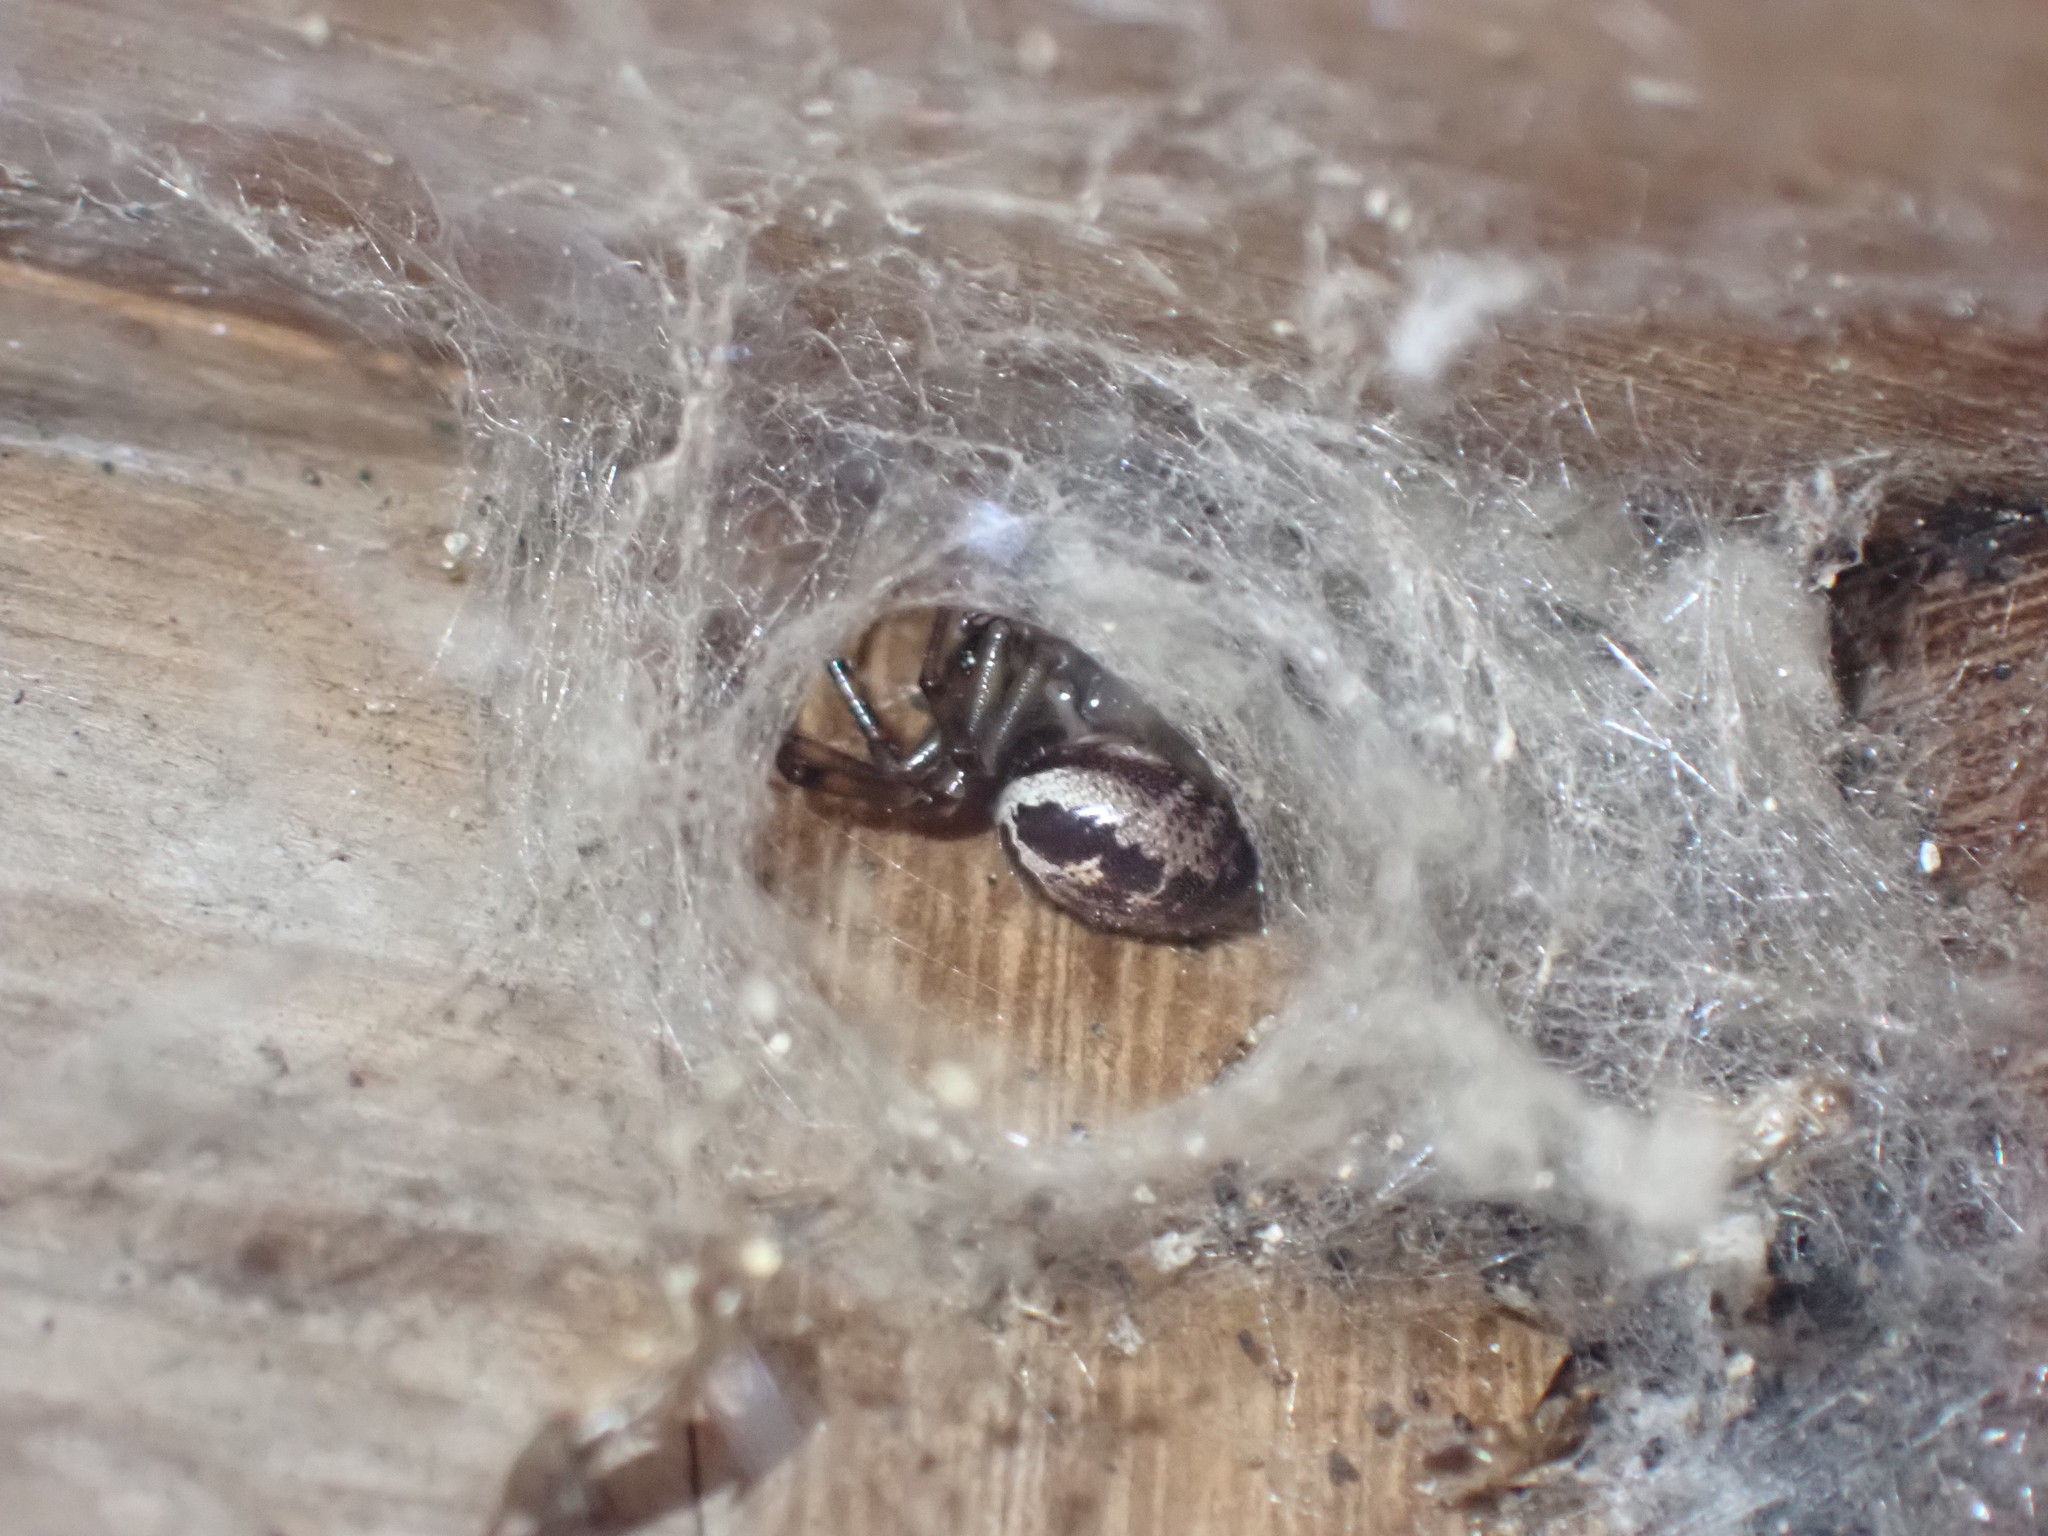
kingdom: Animalia
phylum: Arthropoda
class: Arachnida
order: Araneae
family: Theridiidae
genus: Steatoda
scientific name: Steatoda nobilis
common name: Cobweb weaver
